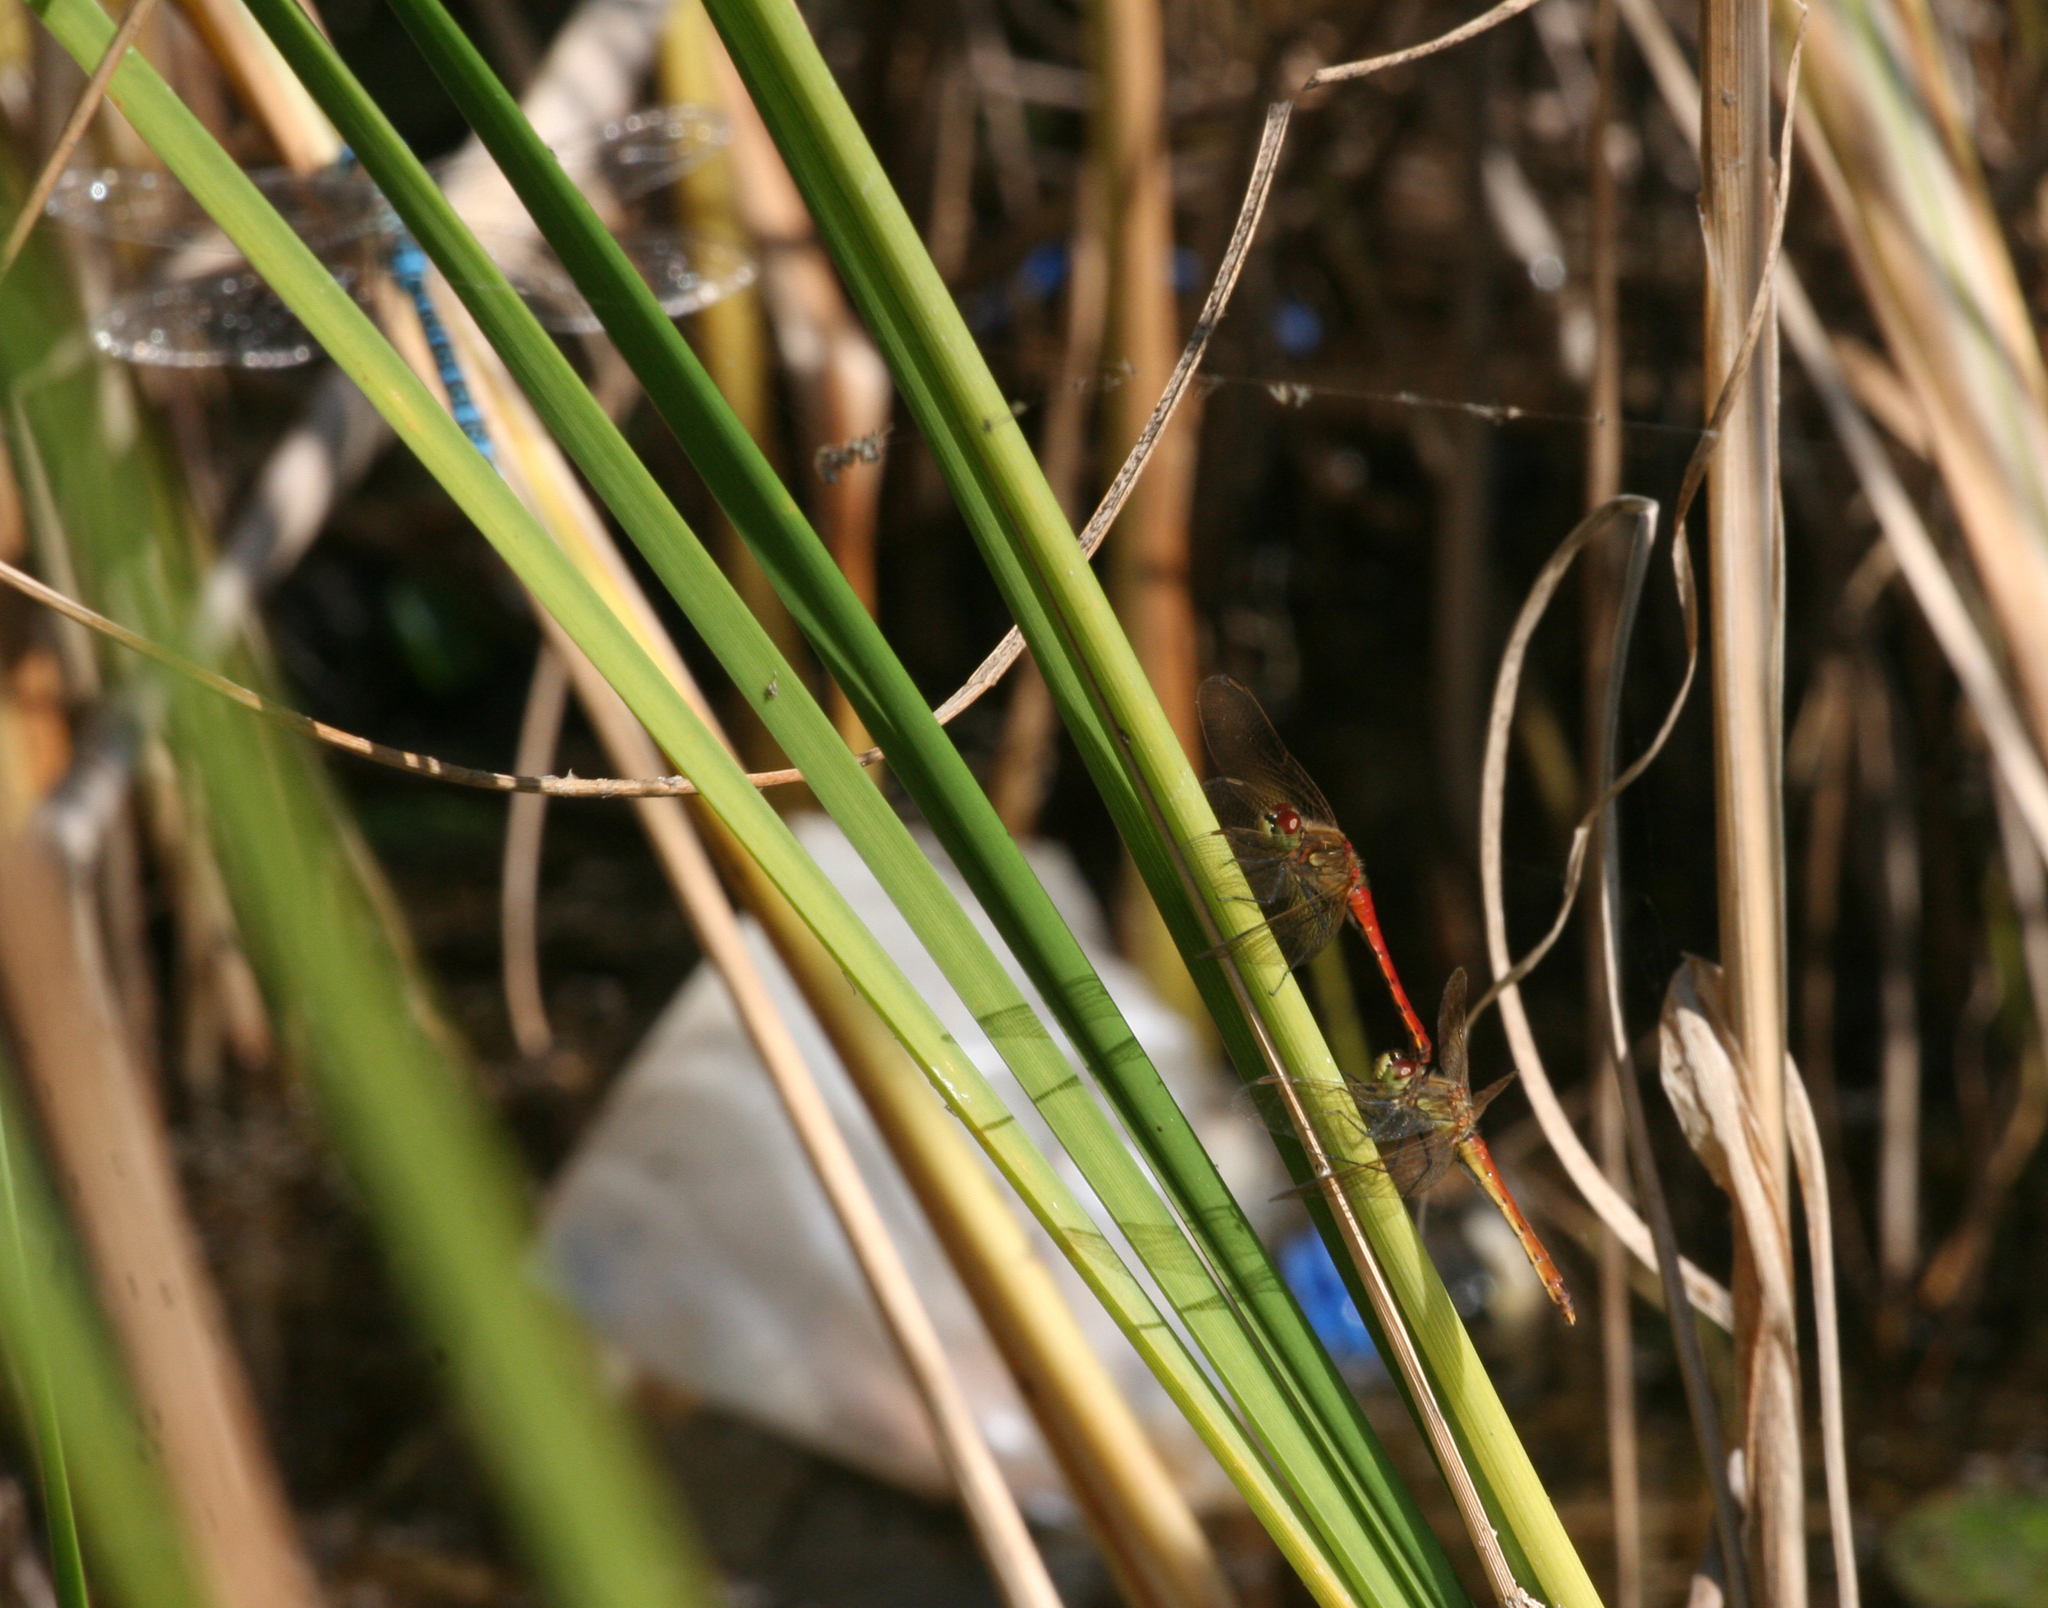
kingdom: Animalia
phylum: Arthropoda
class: Insecta
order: Odonata
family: Libellulidae
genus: Sympetrum
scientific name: Sympetrum depressiusculum
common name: Spotted darter
